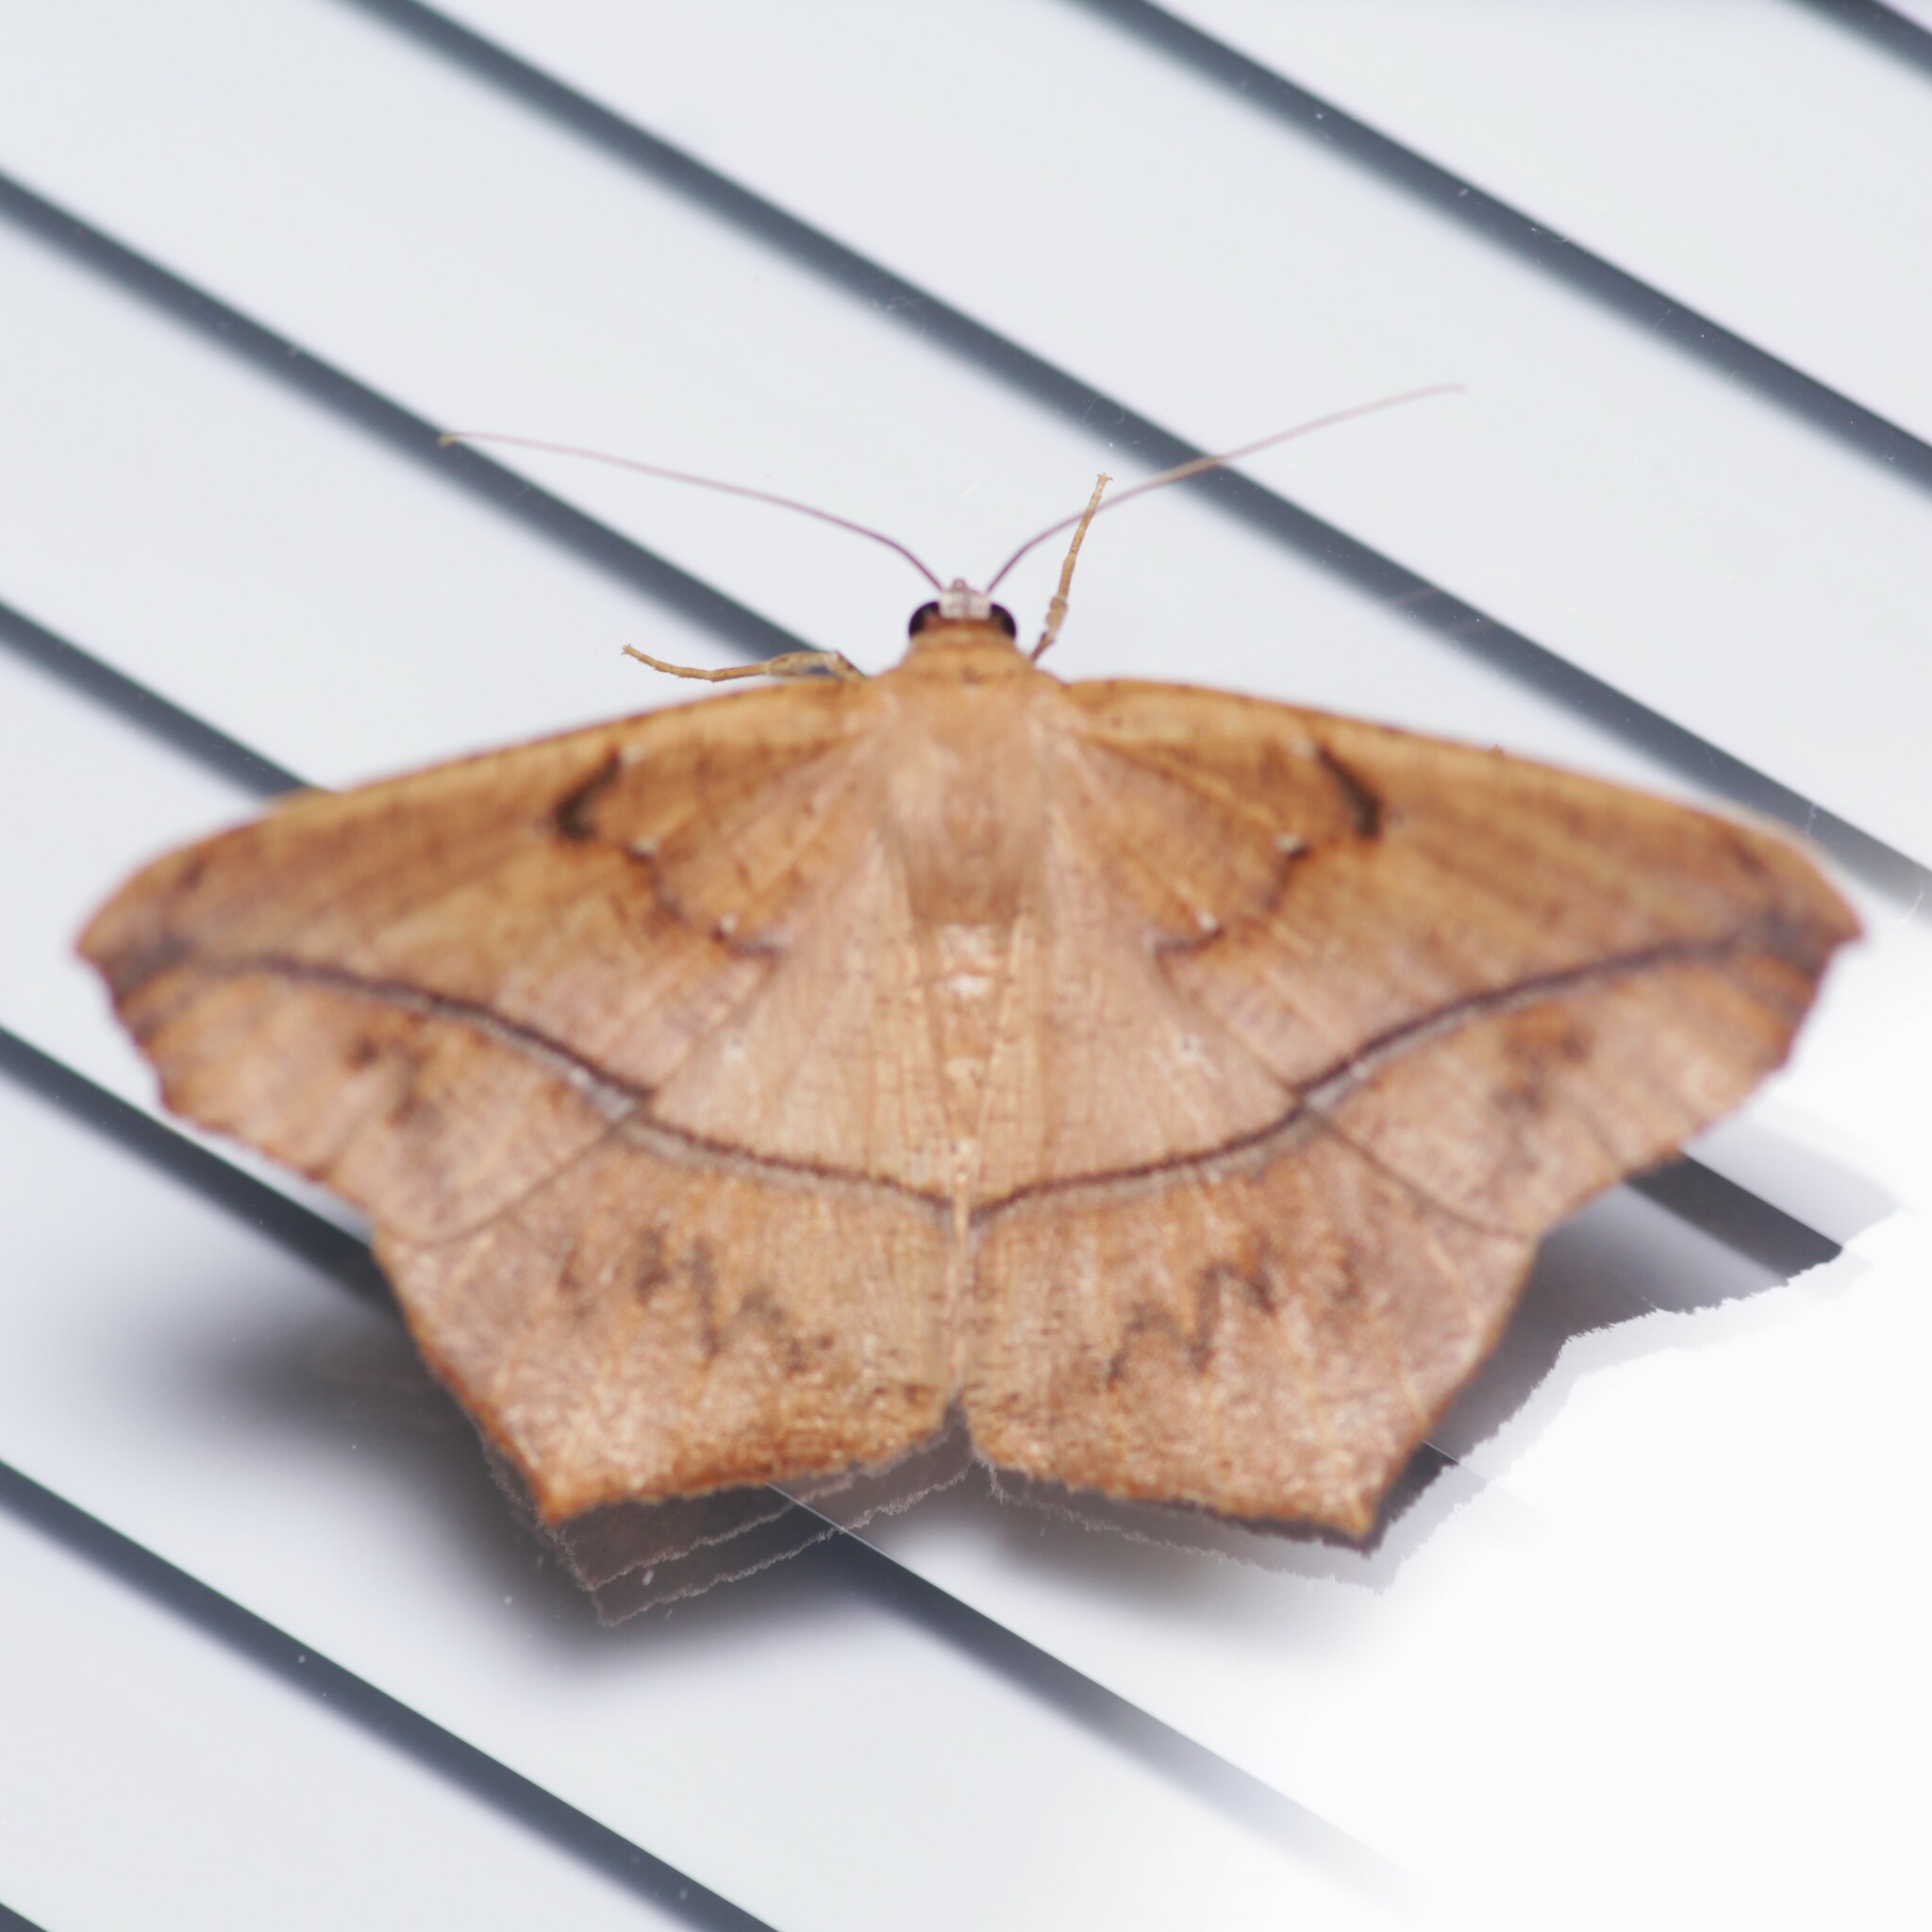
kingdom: Animalia
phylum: Arthropoda
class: Insecta
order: Lepidoptera
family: Geometridae
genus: Prochoerodes
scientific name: Prochoerodes lineola
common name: Large maple spanworm
